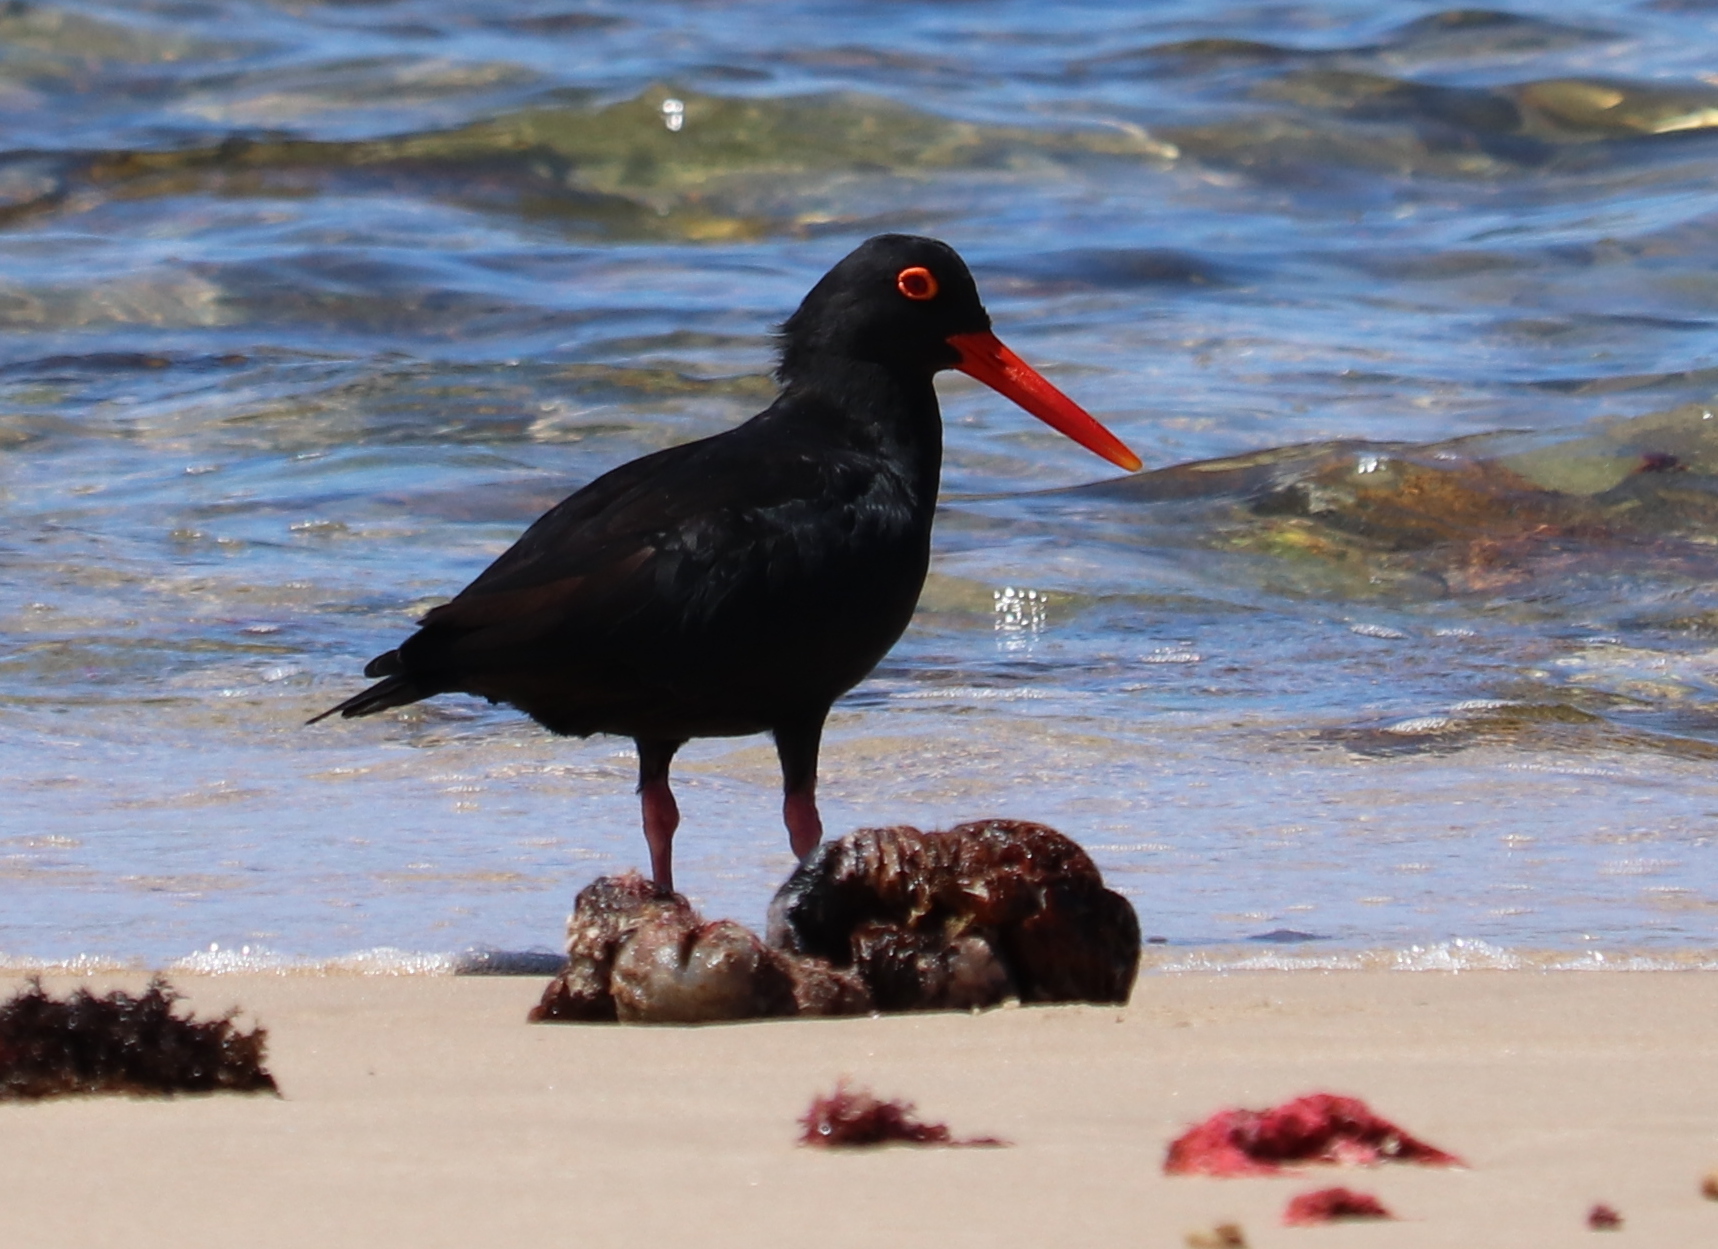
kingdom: Animalia
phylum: Chordata
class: Aves
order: Charadriiformes
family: Haematopodidae
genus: Haematopus
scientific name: Haematopus moquini
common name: African oystercatcher
